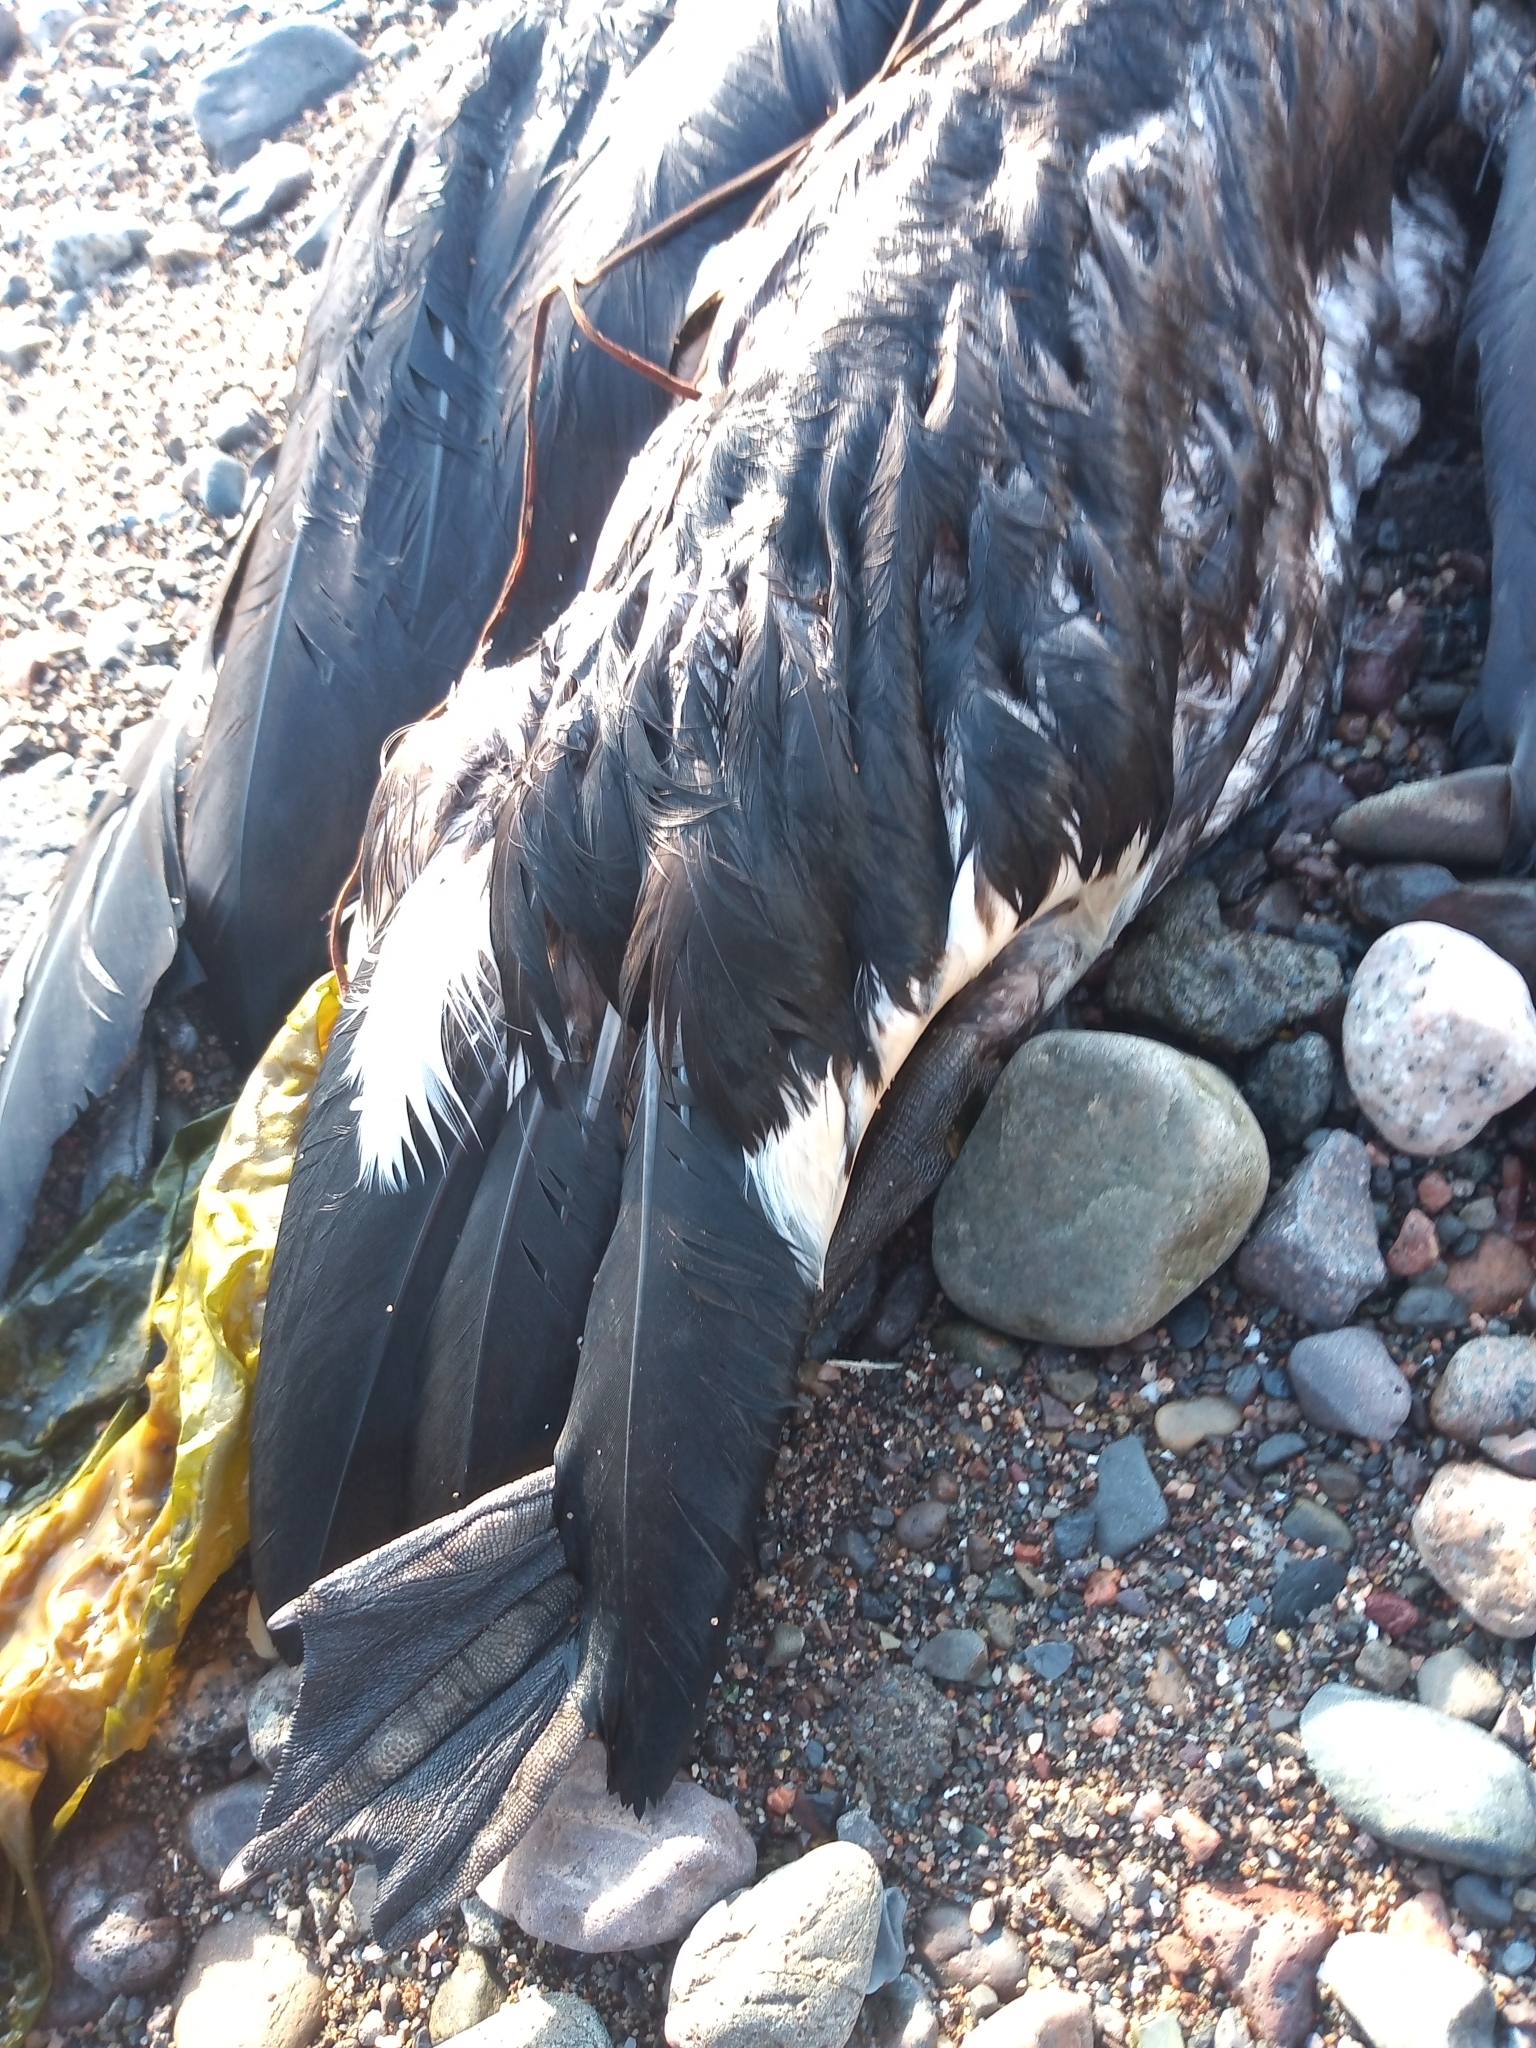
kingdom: Animalia
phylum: Chordata
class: Aves
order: Anseriformes
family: Anatidae
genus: Branta
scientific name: Branta canadensis
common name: Canada goose
